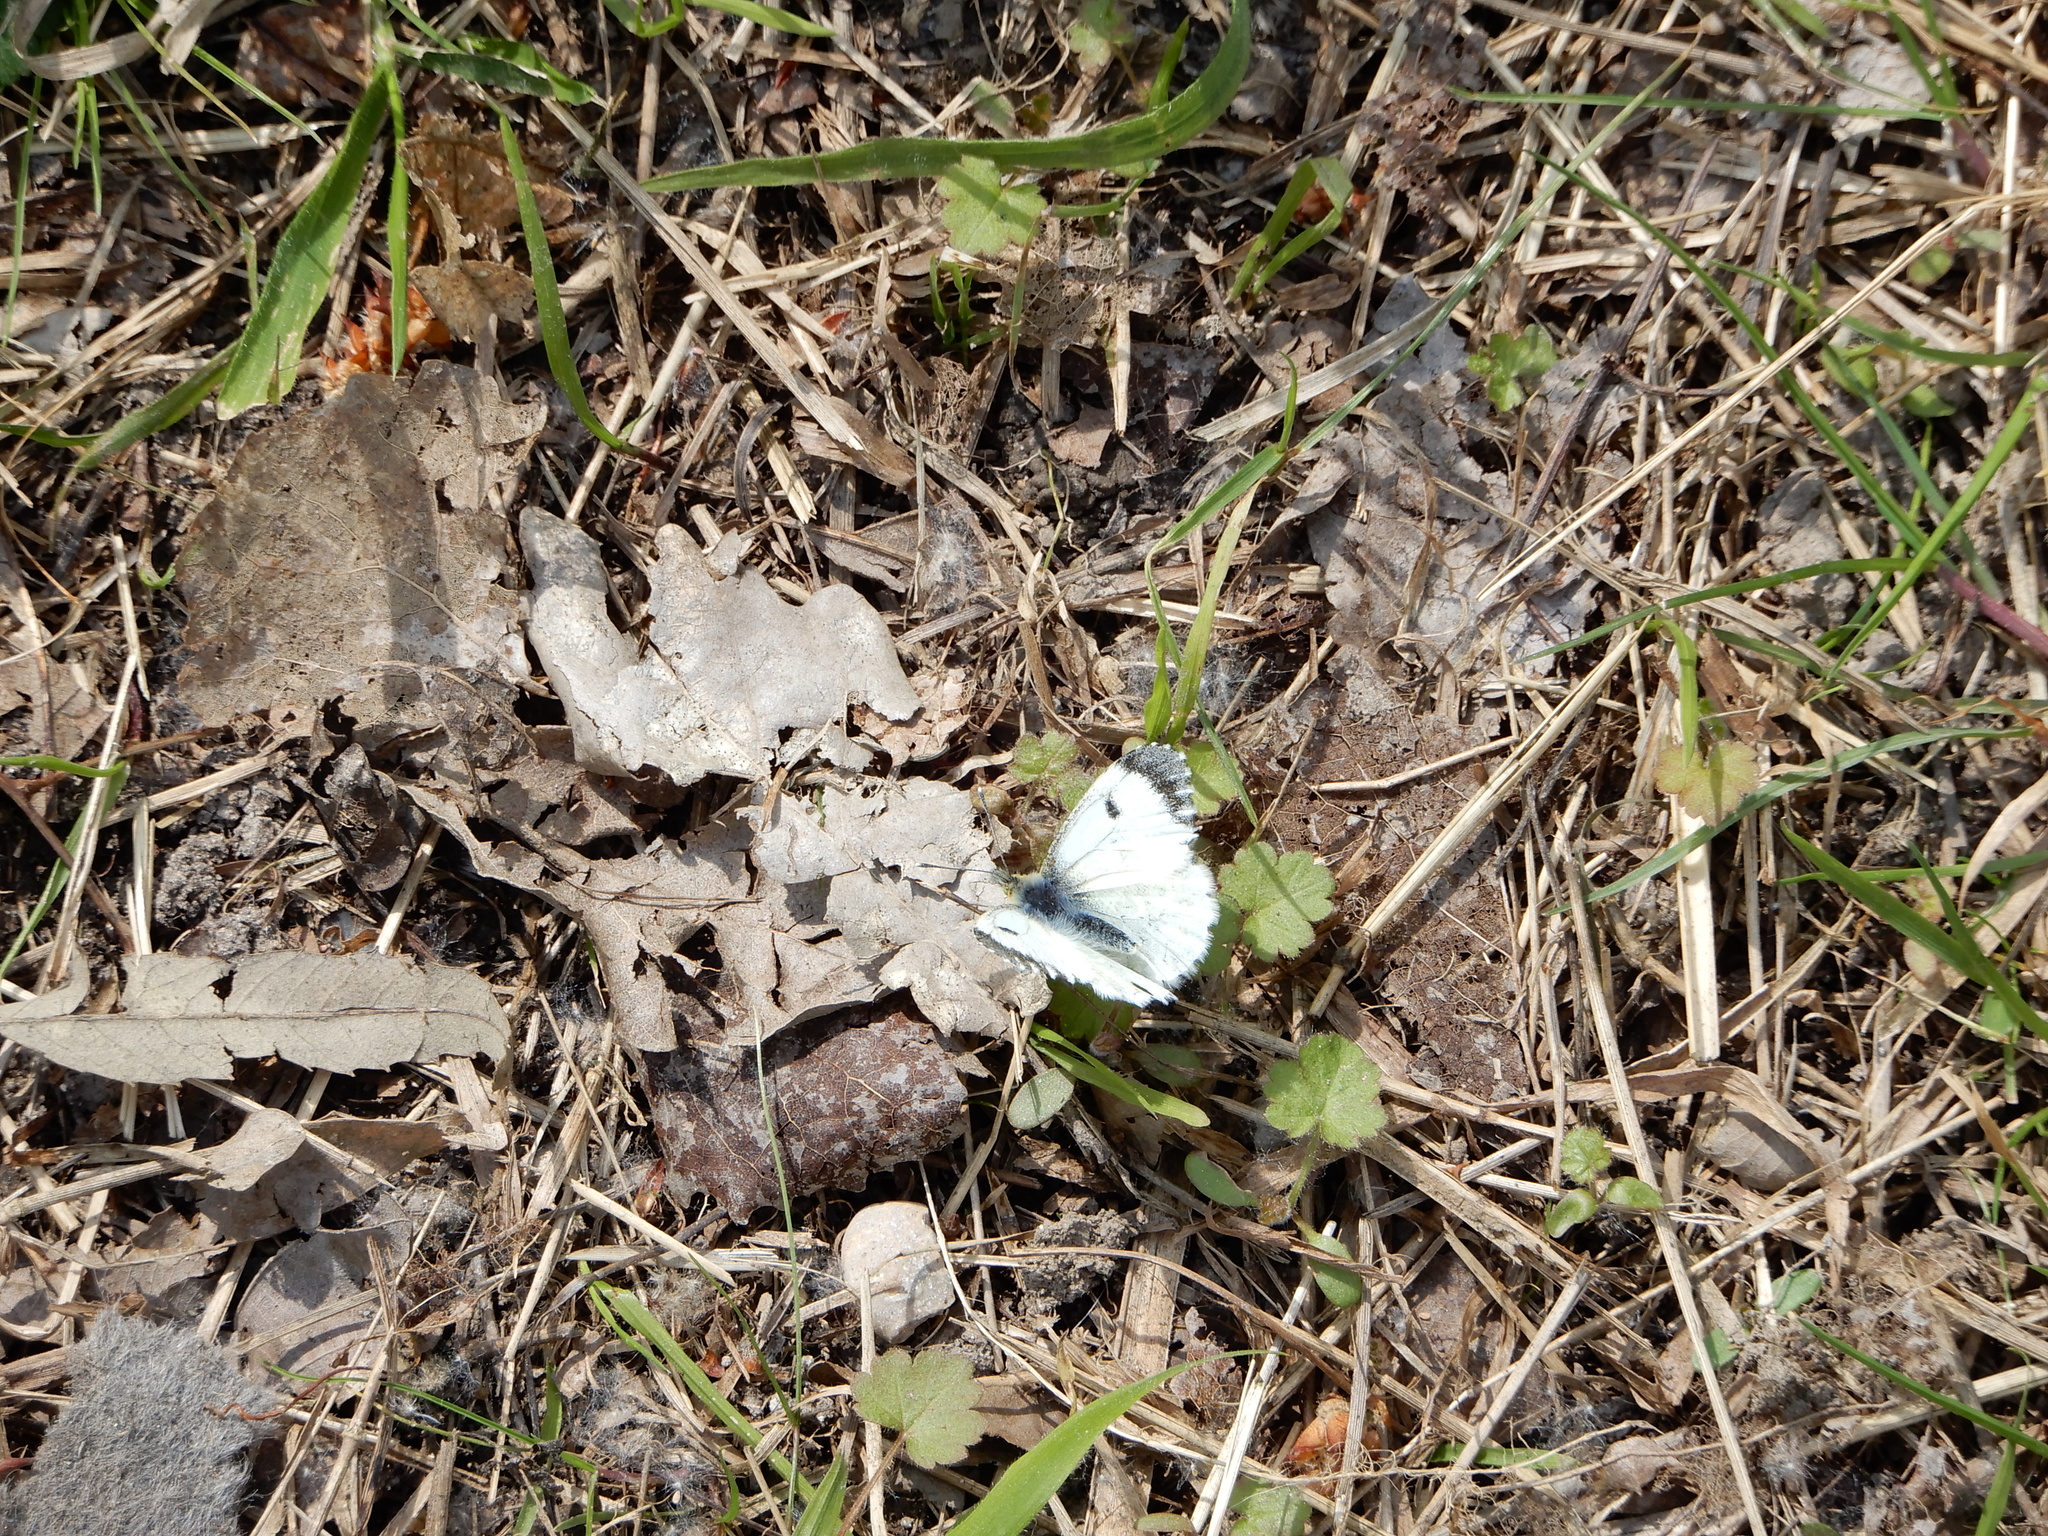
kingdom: Animalia
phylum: Arthropoda
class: Insecta
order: Lepidoptera
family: Pieridae
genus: Anthocharis
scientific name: Anthocharis cardamines
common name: Orange-tip
